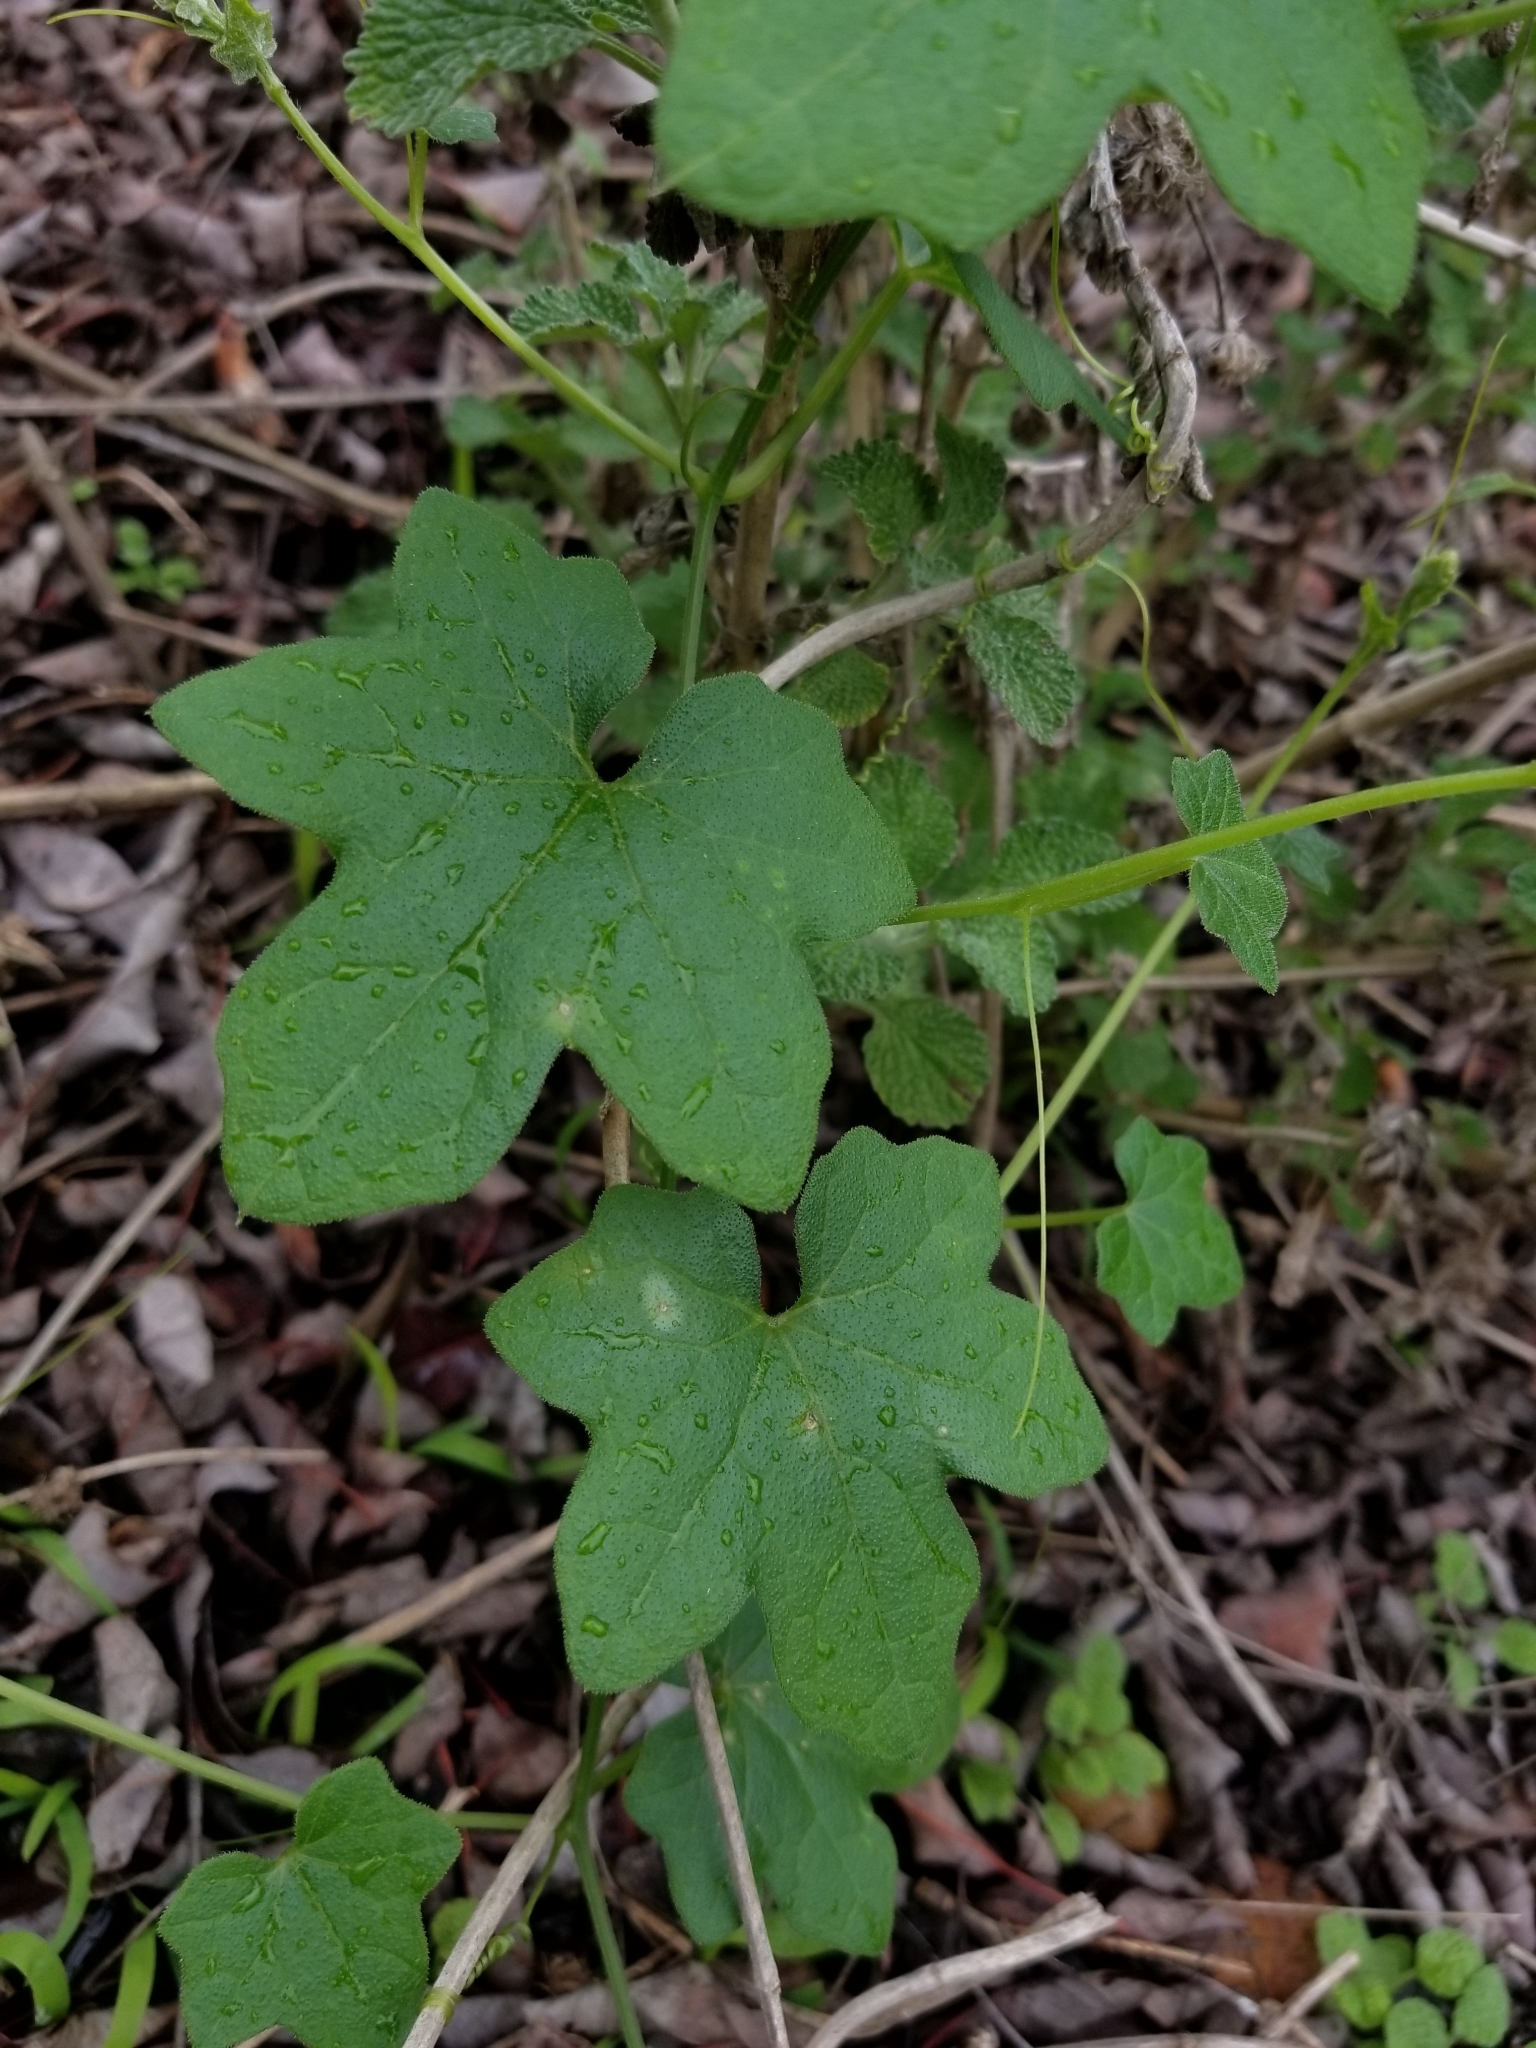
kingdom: Plantae
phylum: Tracheophyta
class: Magnoliopsida
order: Cucurbitales
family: Cucurbitaceae
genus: Marah
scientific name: Marah macrocarpa
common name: Cucamonga manroot
